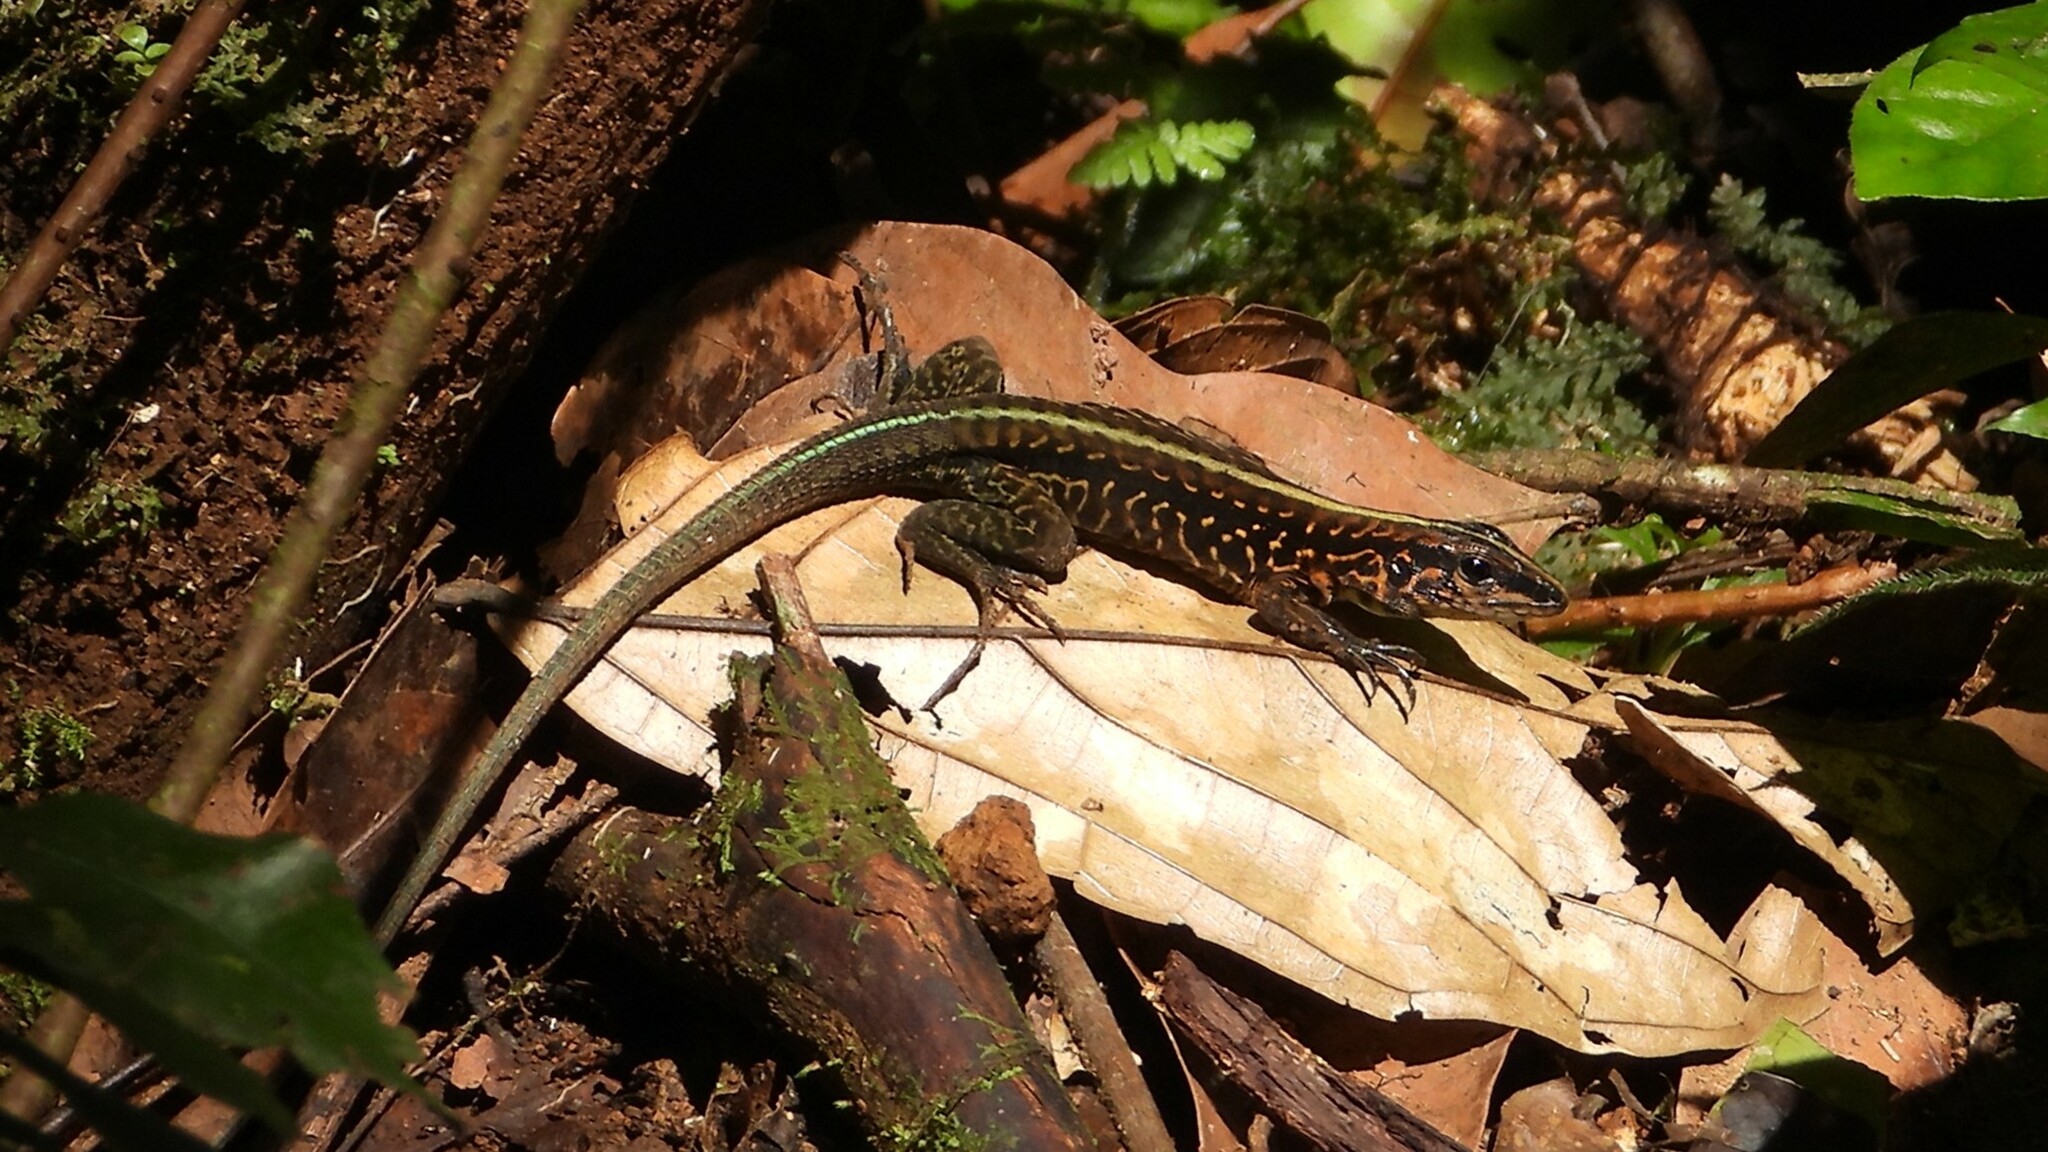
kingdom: Animalia
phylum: Chordata
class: Squamata
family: Teiidae
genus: Holcosus
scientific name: Holcosus festivus
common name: Middle american ameiva
